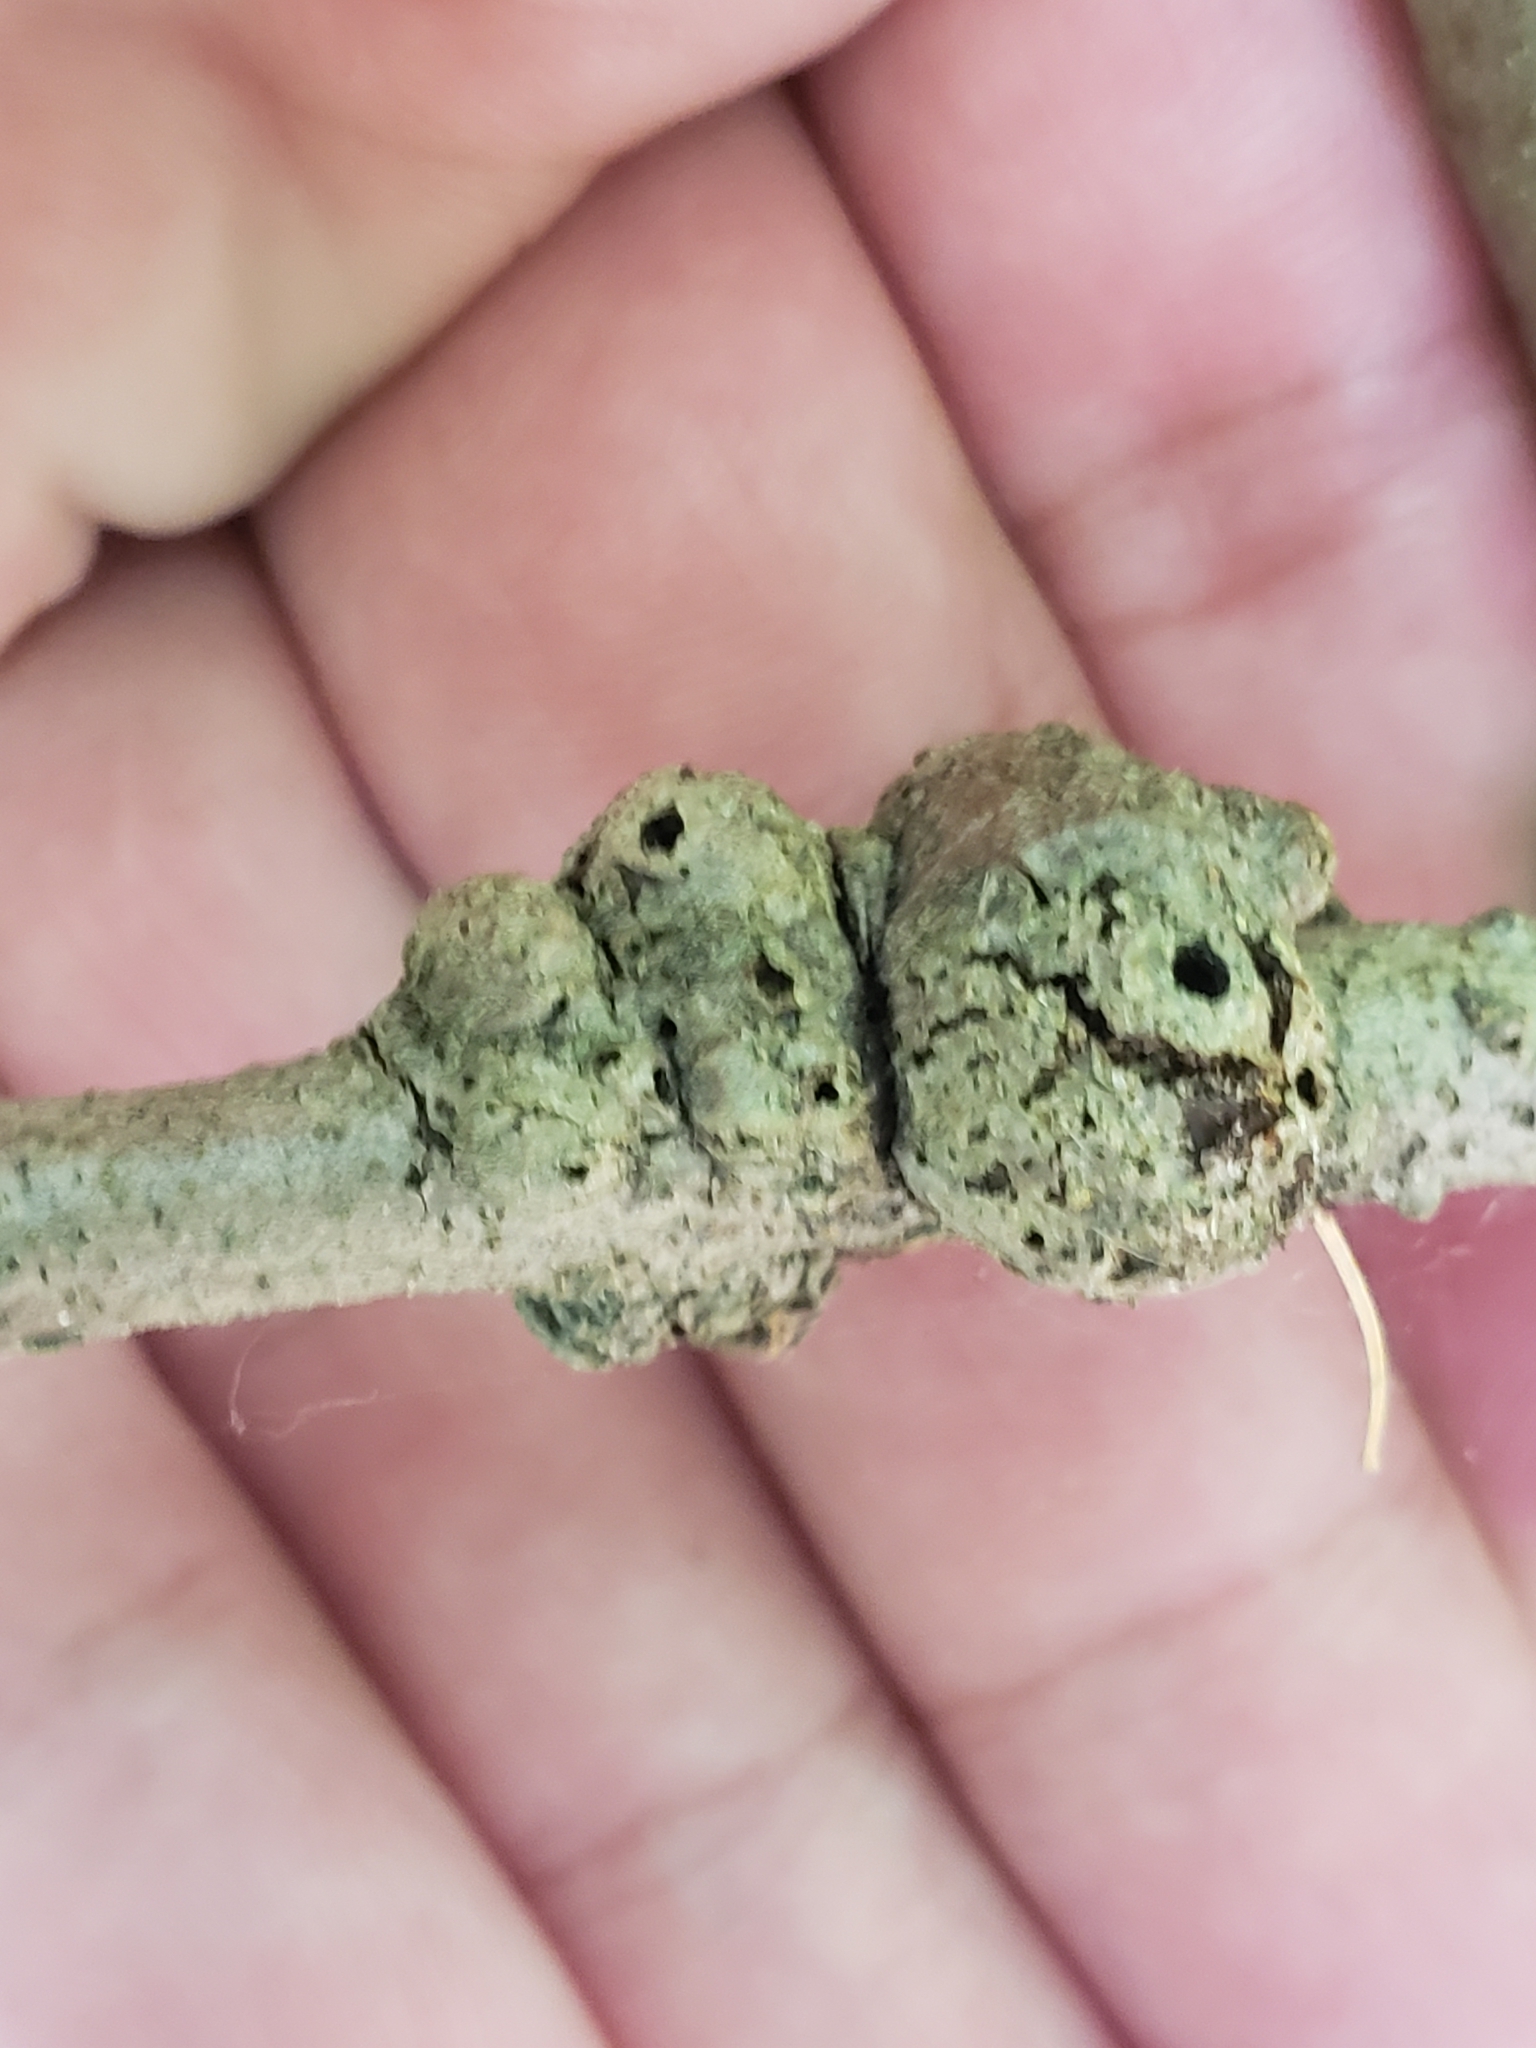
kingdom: Animalia
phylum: Arthropoda
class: Insecta
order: Hymenoptera
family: Cynipidae
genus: Callirhytis
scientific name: Callirhytis
